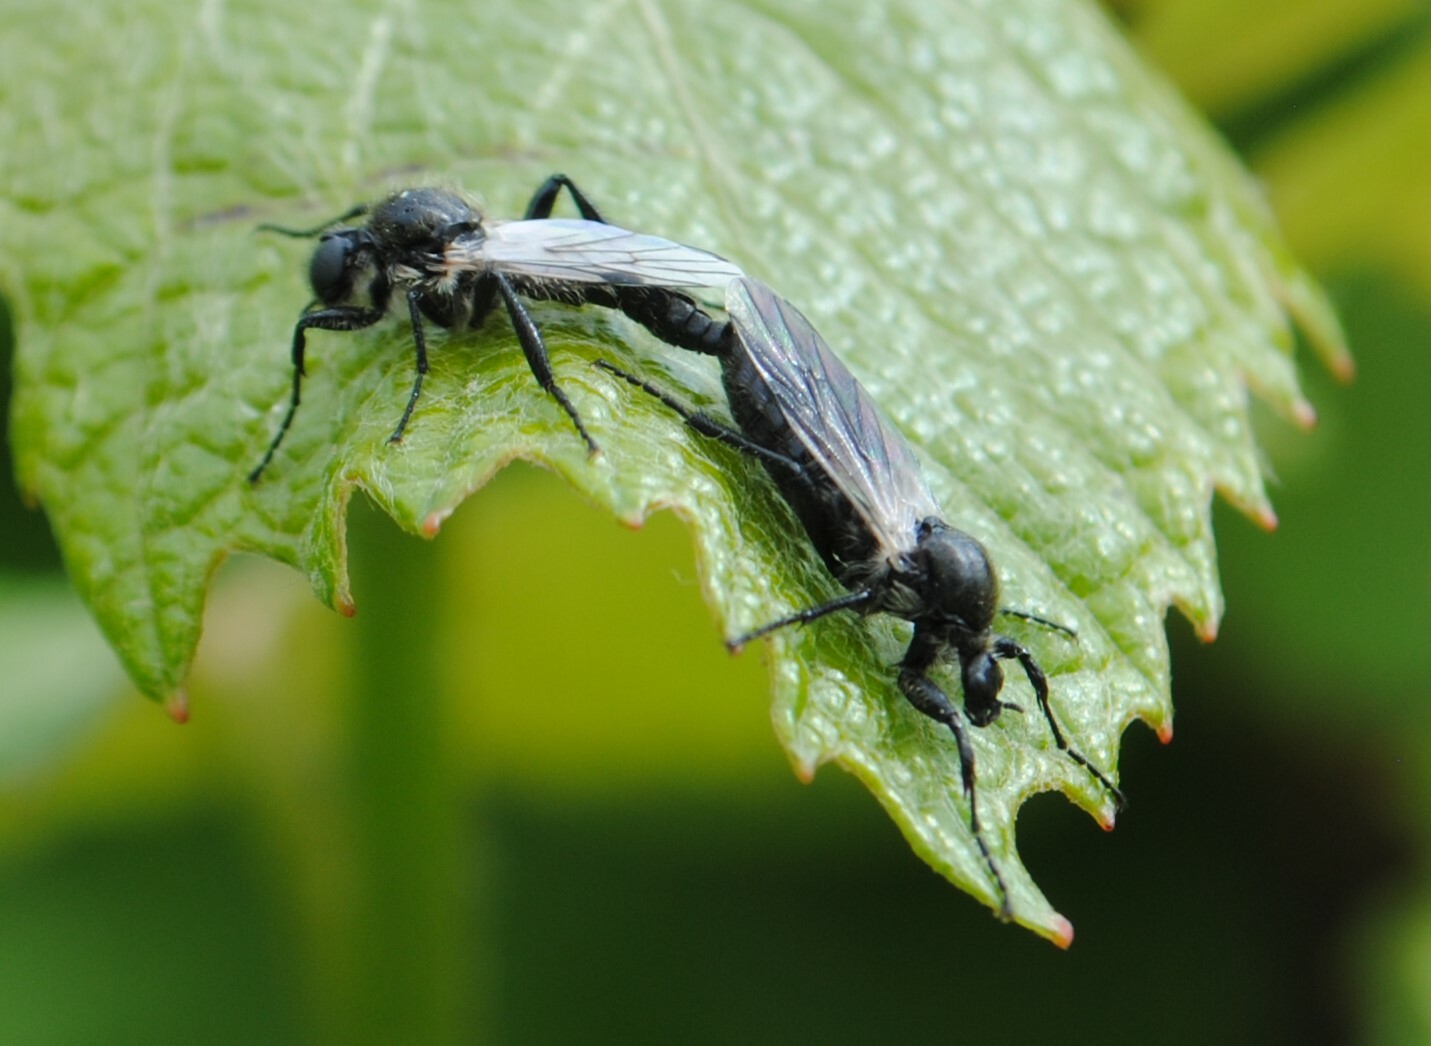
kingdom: Animalia
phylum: Arthropoda
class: Insecta
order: Diptera
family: Bibionidae
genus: Bibio
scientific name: Bibio albipennis
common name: White-winged march fly
